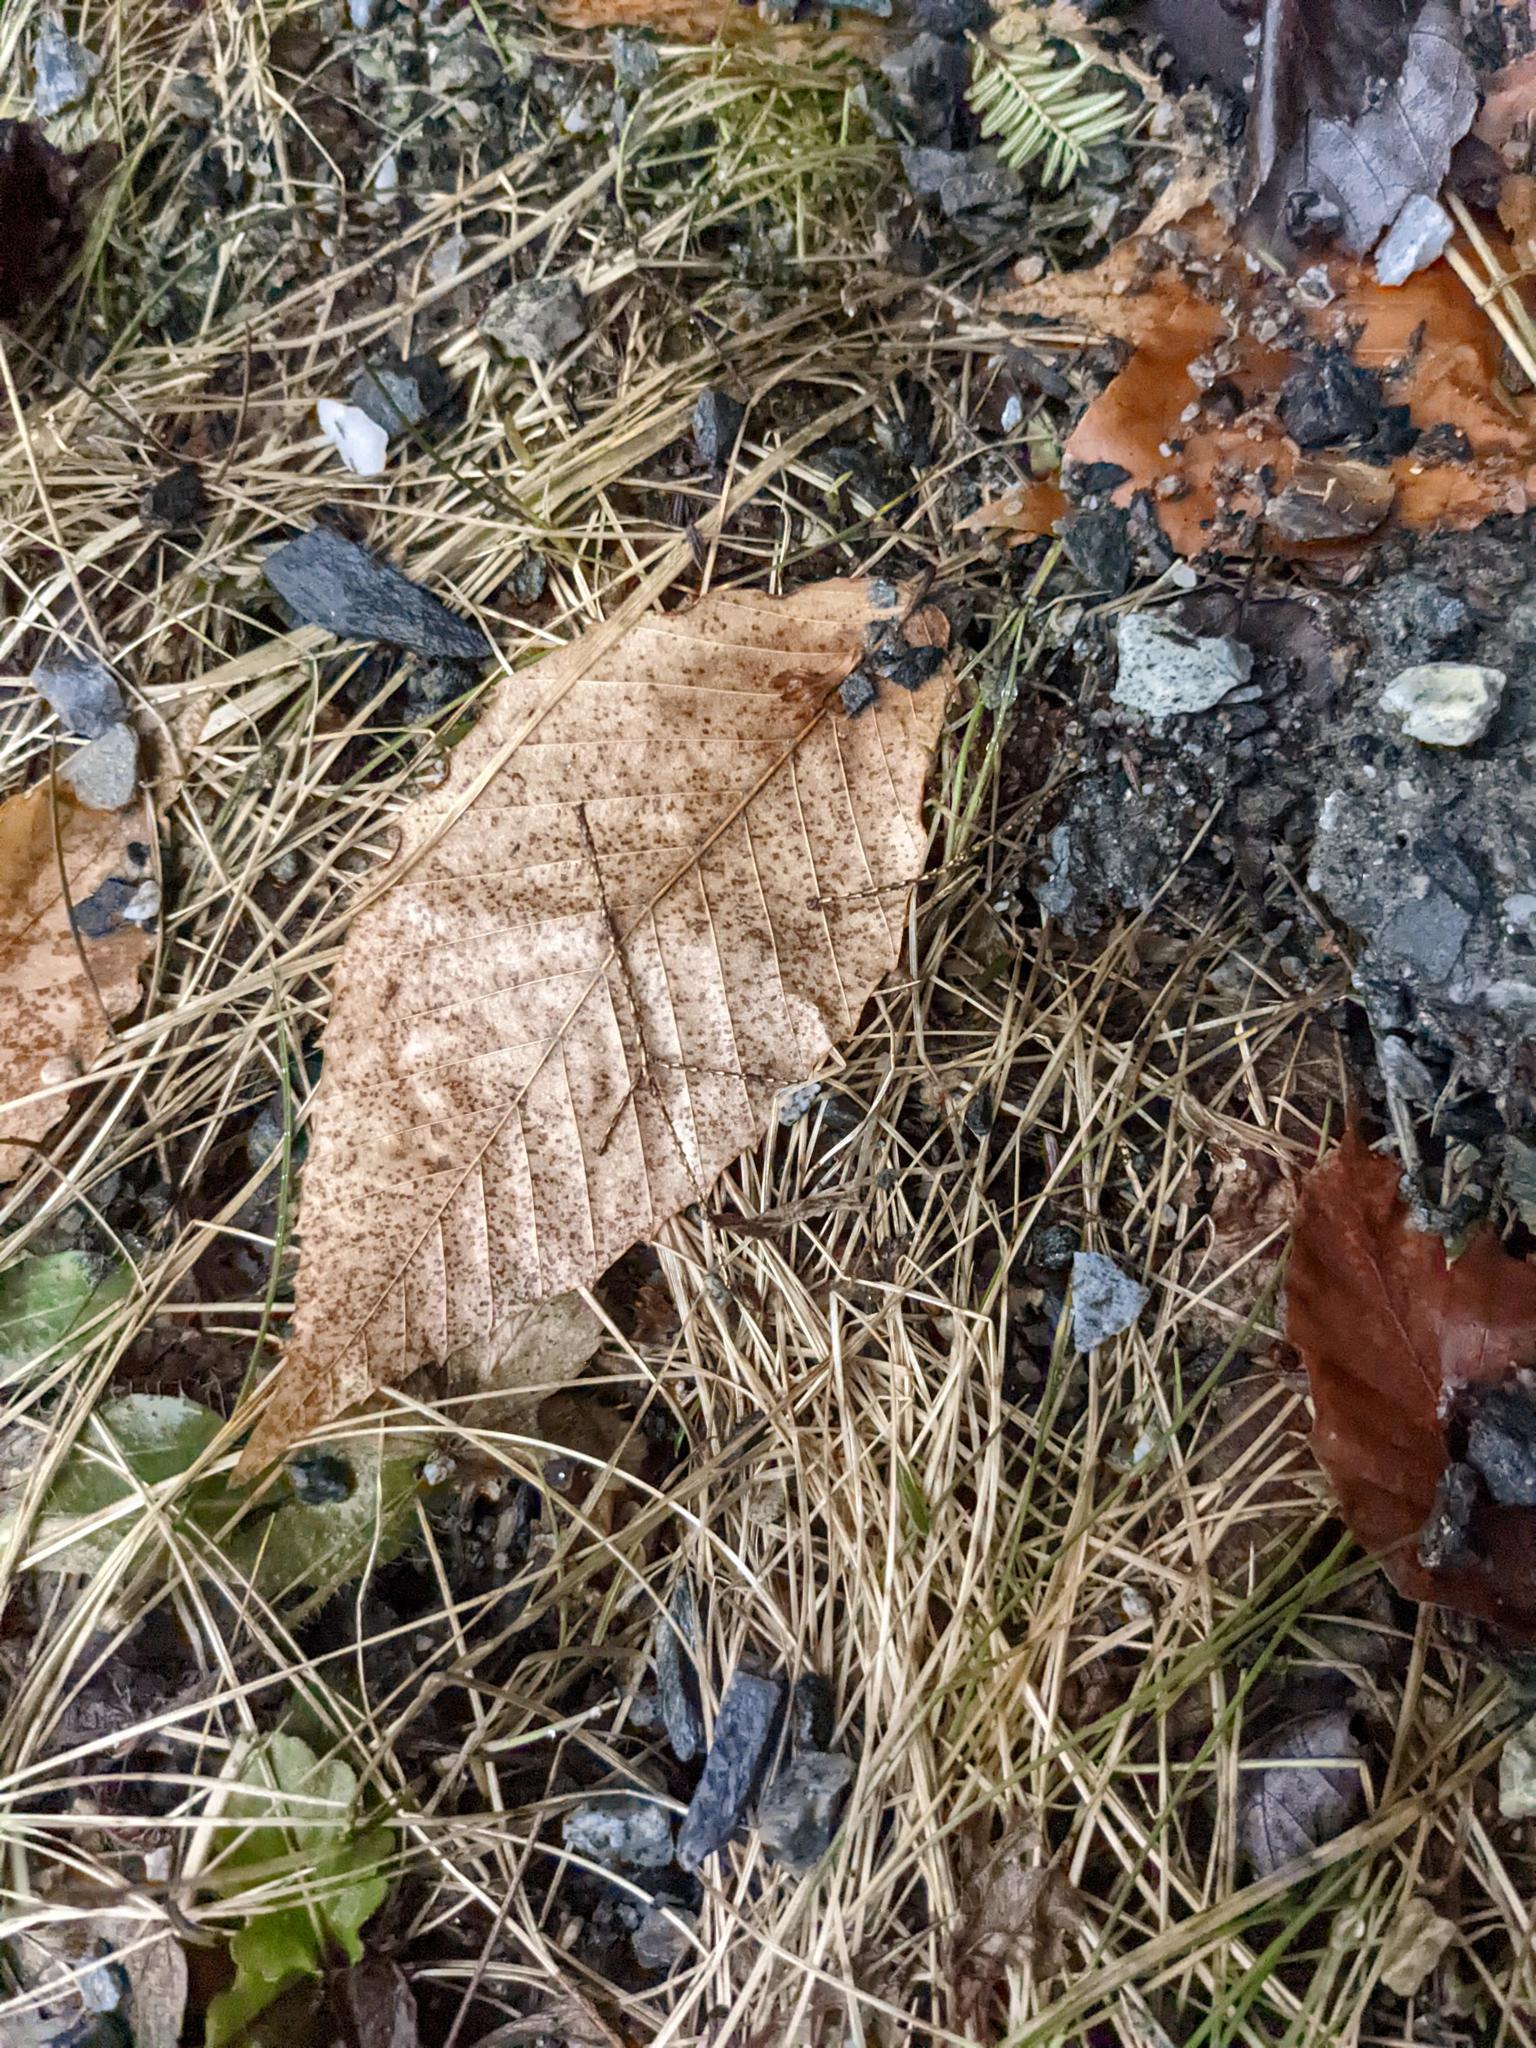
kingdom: Plantae
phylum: Tracheophyta
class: Magnoliopsida
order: Fagales
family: Fagaceae
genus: Fagus
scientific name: Fagus grandifolia
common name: American beech
